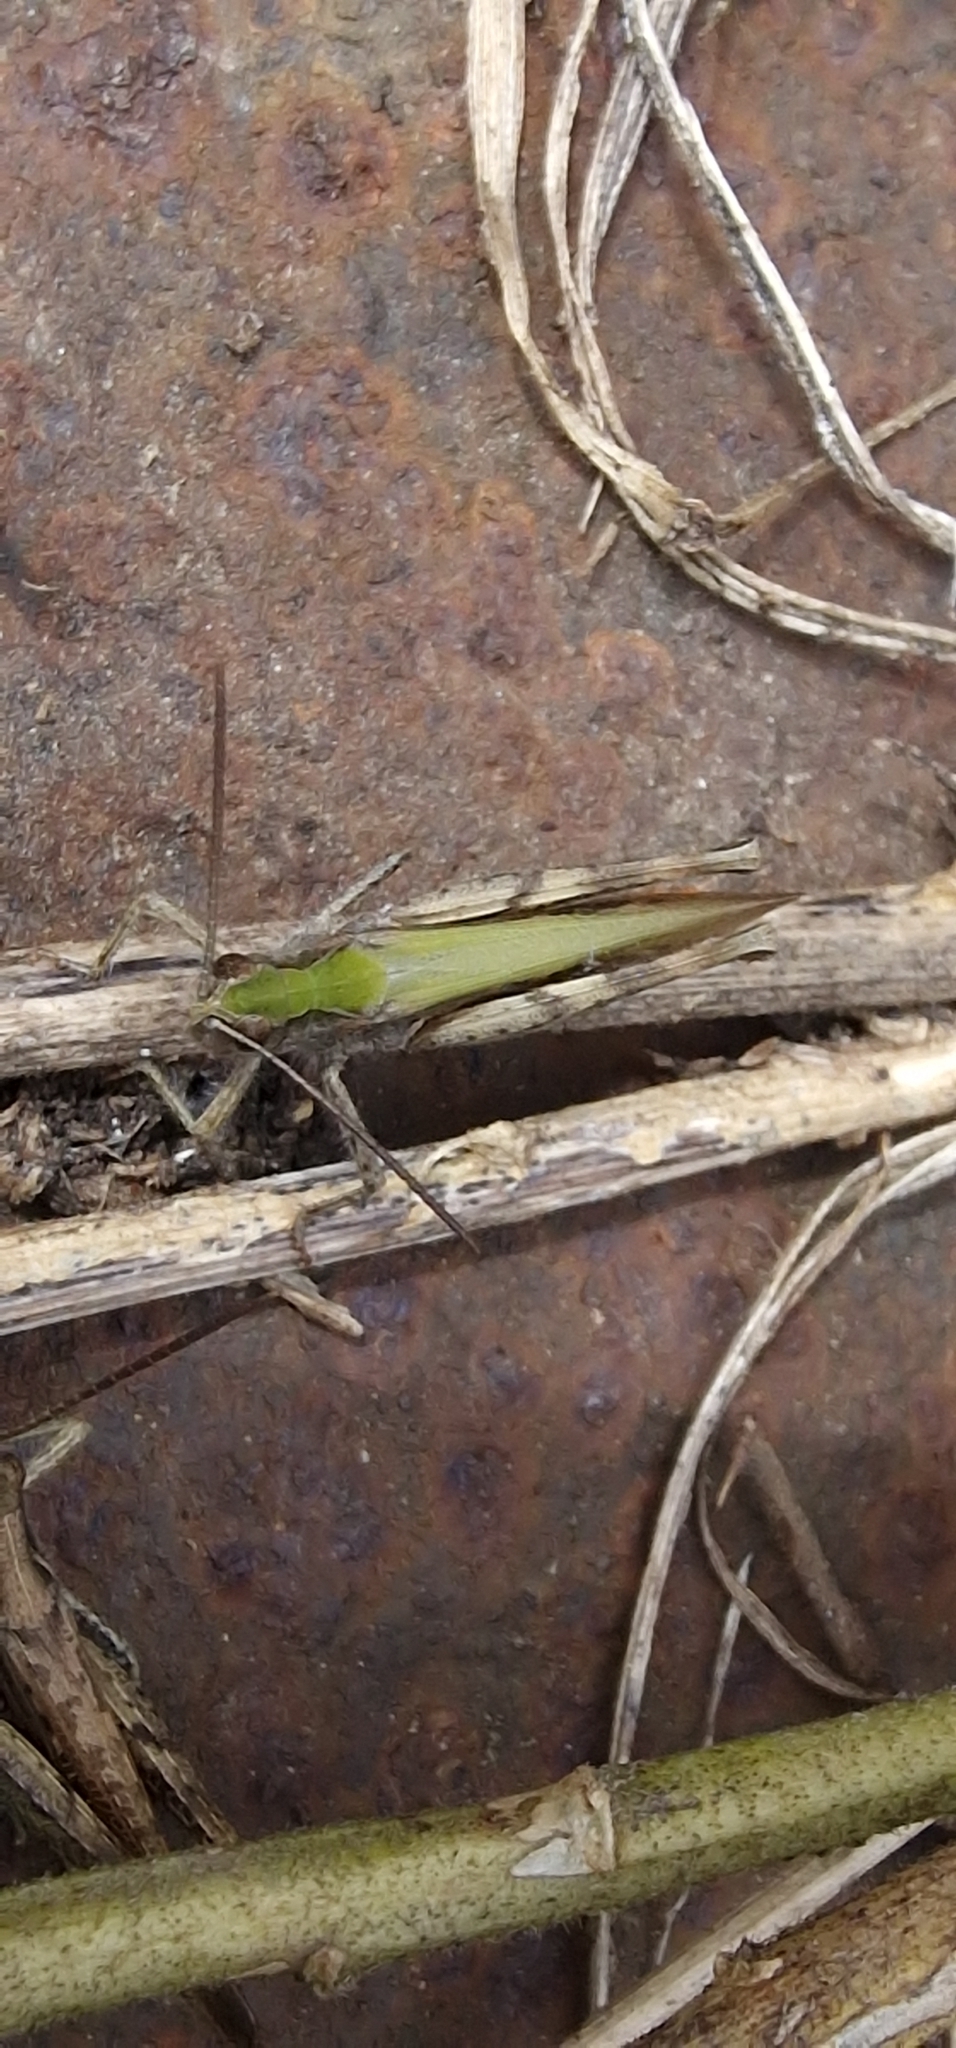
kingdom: Animalia
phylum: Arthropoda
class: Insecta
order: Orthoptera
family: Acrididae
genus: Chorthippus
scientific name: Chorthippus brunneus
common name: Field grasshopper
